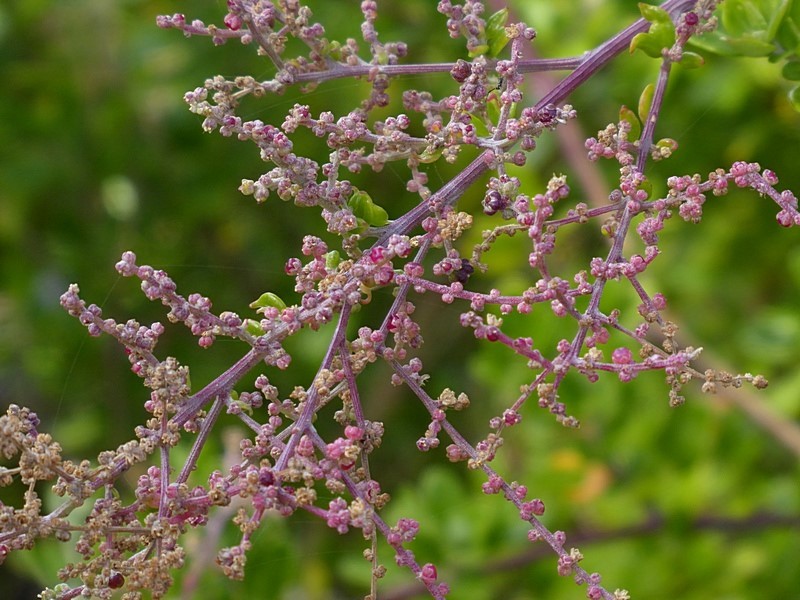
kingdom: Plantae
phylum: Tracheophyta
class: Magnoliopsida
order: Caryophyllales
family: Amaranthaceae
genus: Chenopodium
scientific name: Chenopodium candolleanum
